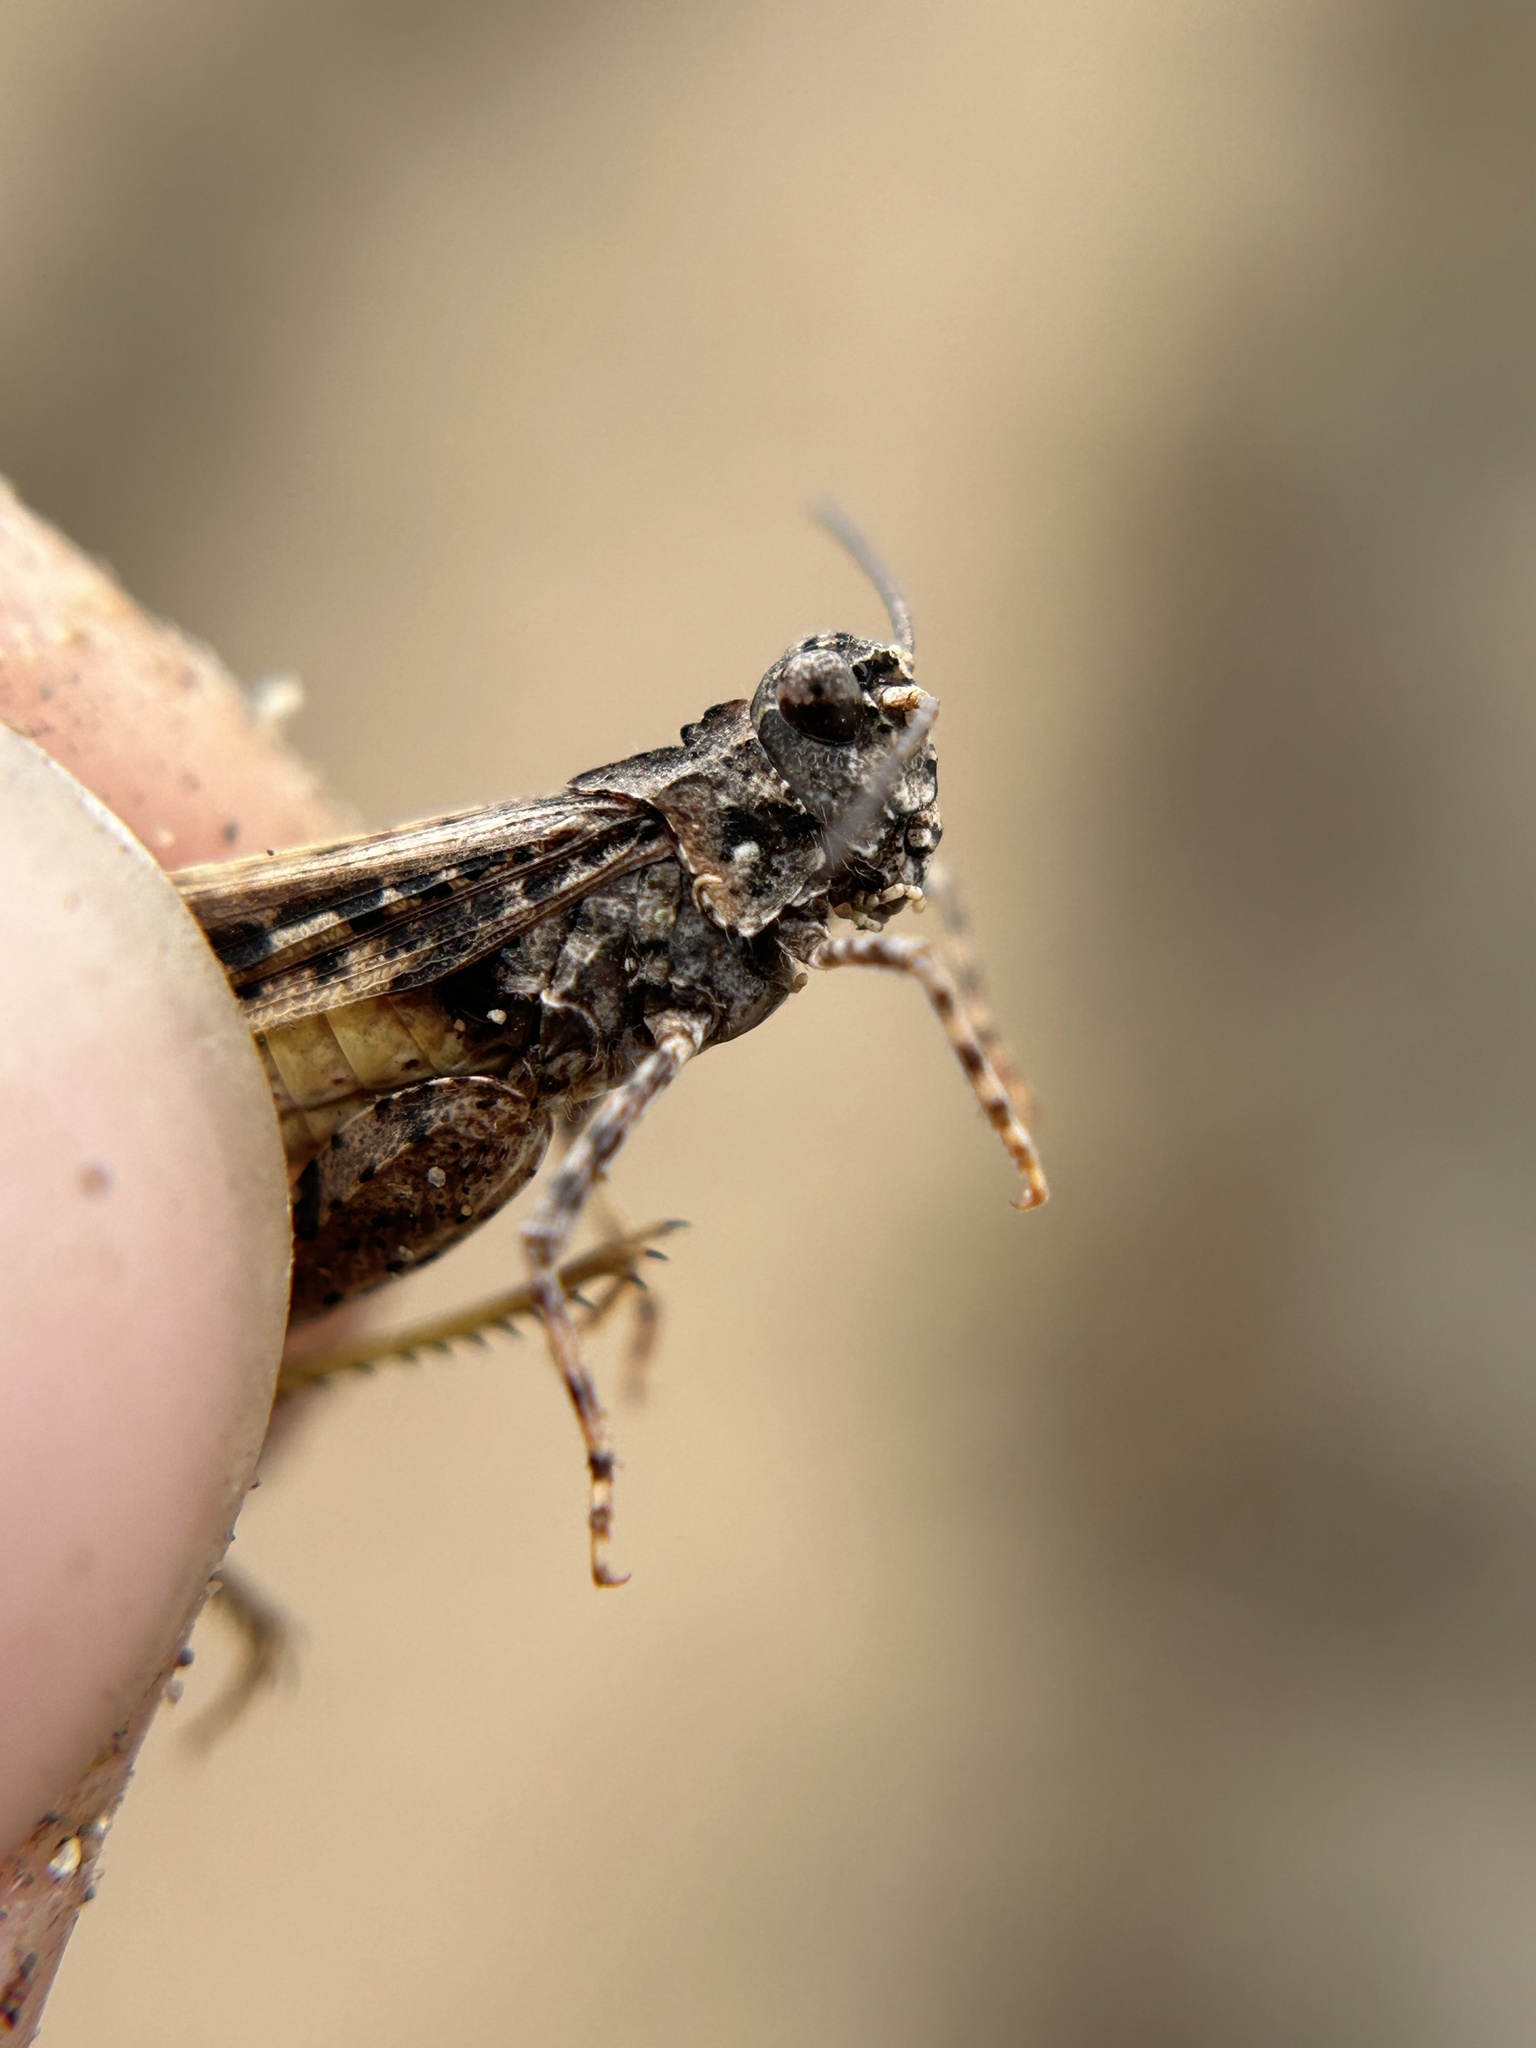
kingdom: Animalia
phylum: Arthropoda
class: Insecta
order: Orthoptera
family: Acrididae
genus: Trimerotropis
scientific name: Trimerotropis pallidipennis
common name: Pallid-winged grasshopper
